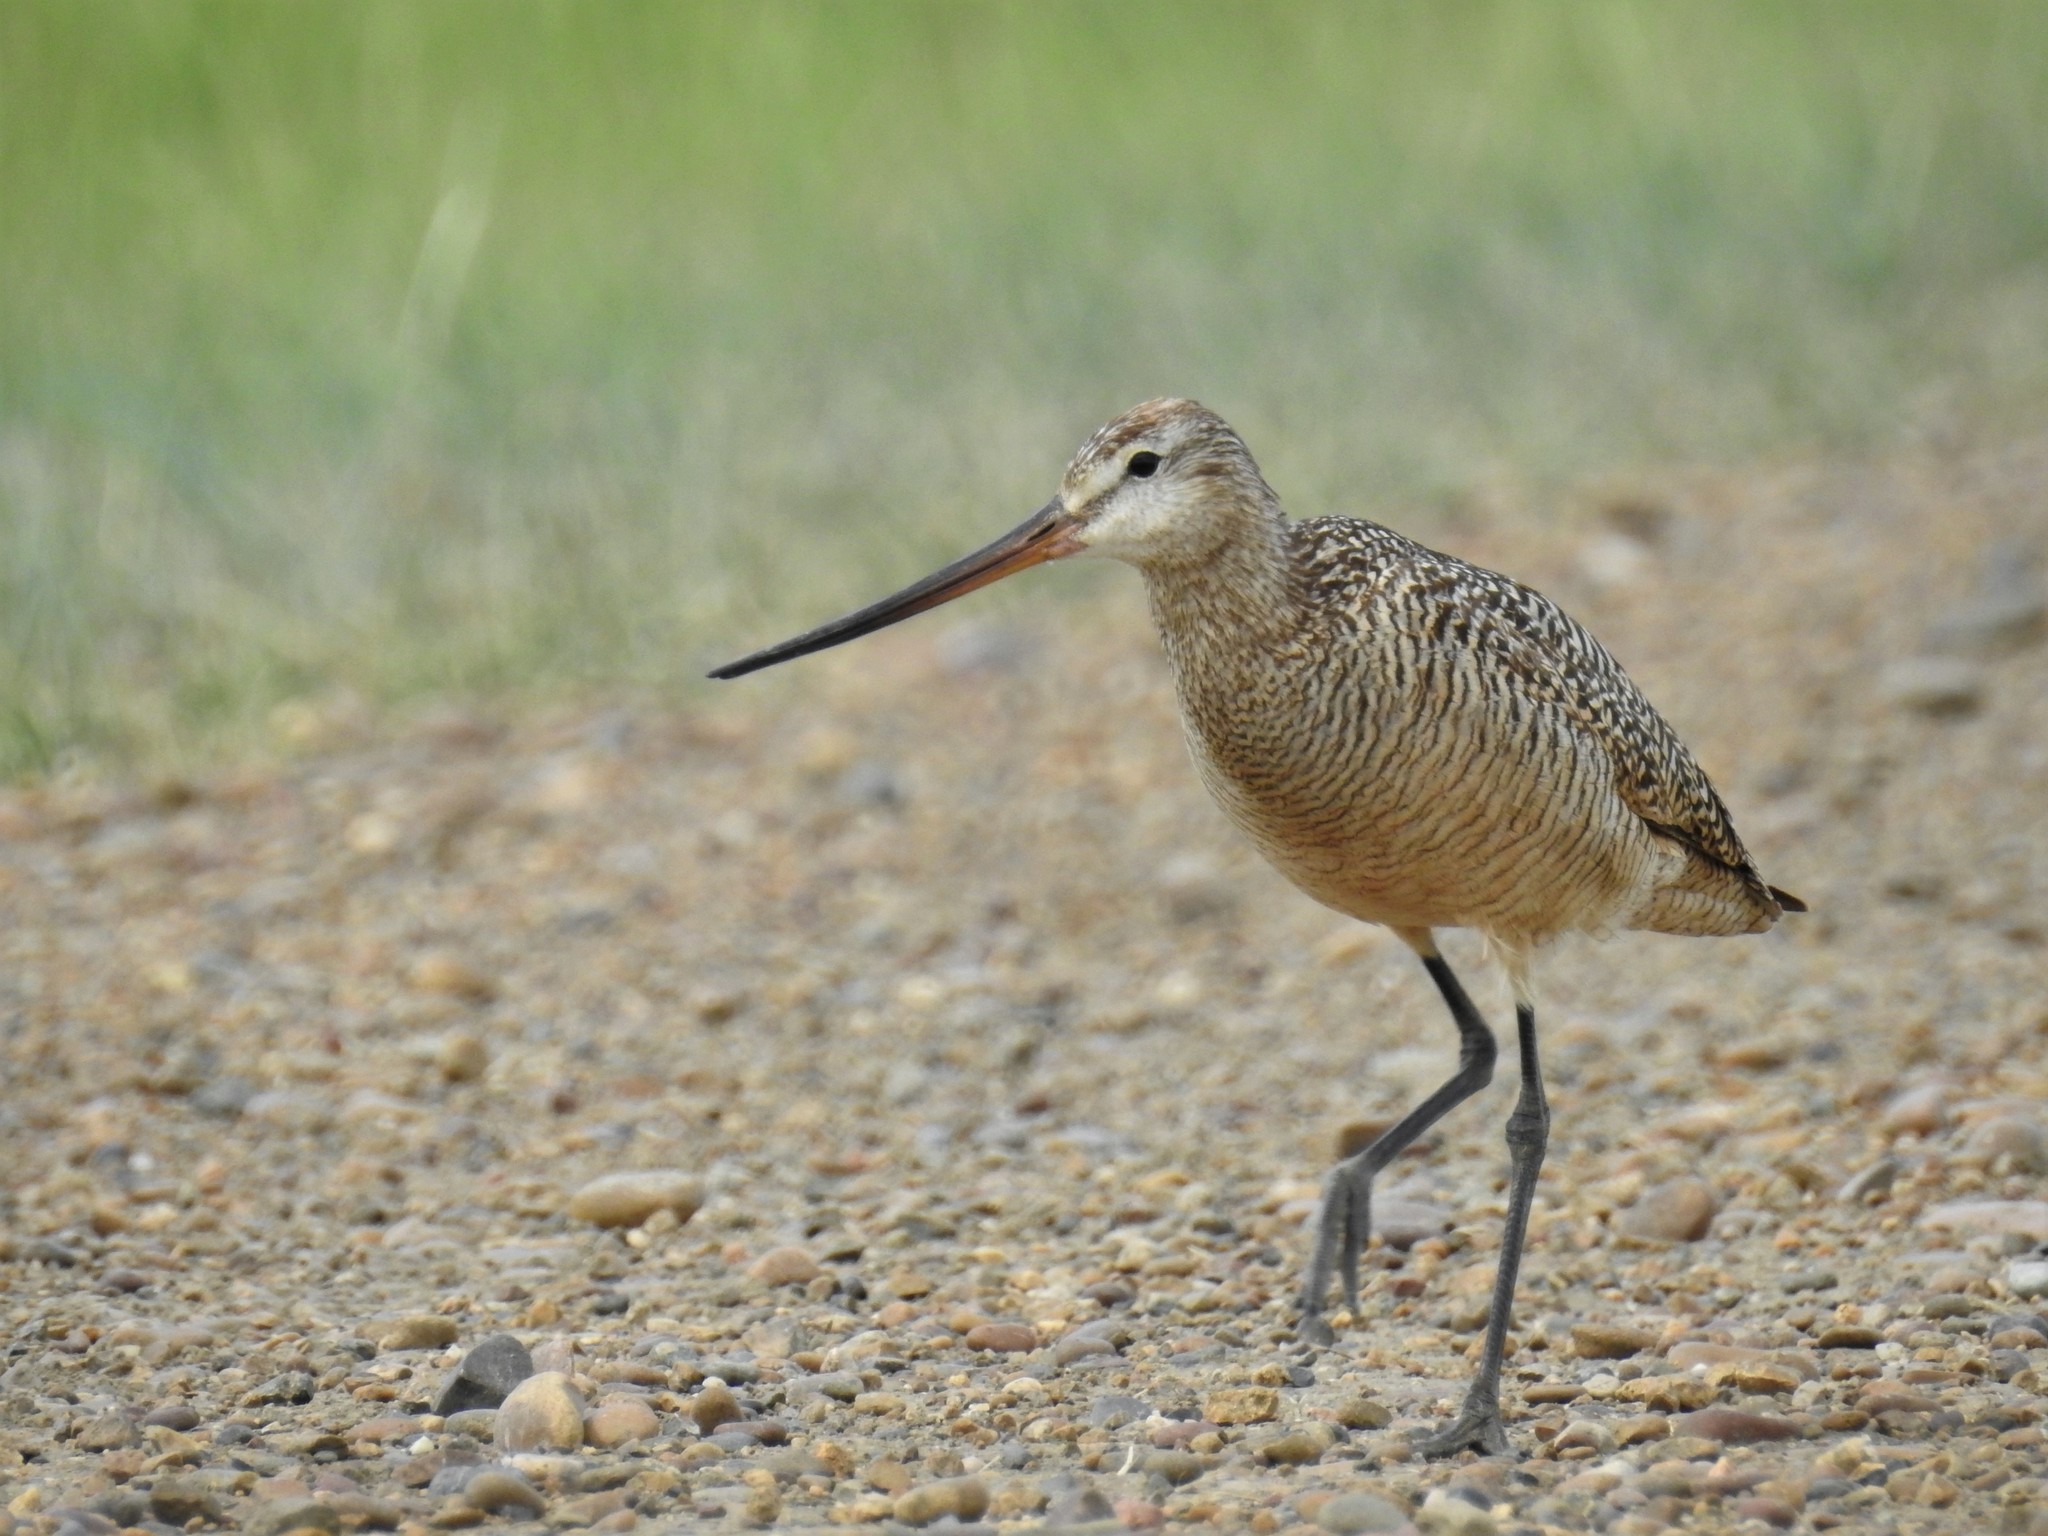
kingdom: Animalia
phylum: Chordata
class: Aves
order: Charadriiformes
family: Scolopacidae
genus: Limosa
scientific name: Limosa fedoa
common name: Marbled godwit
